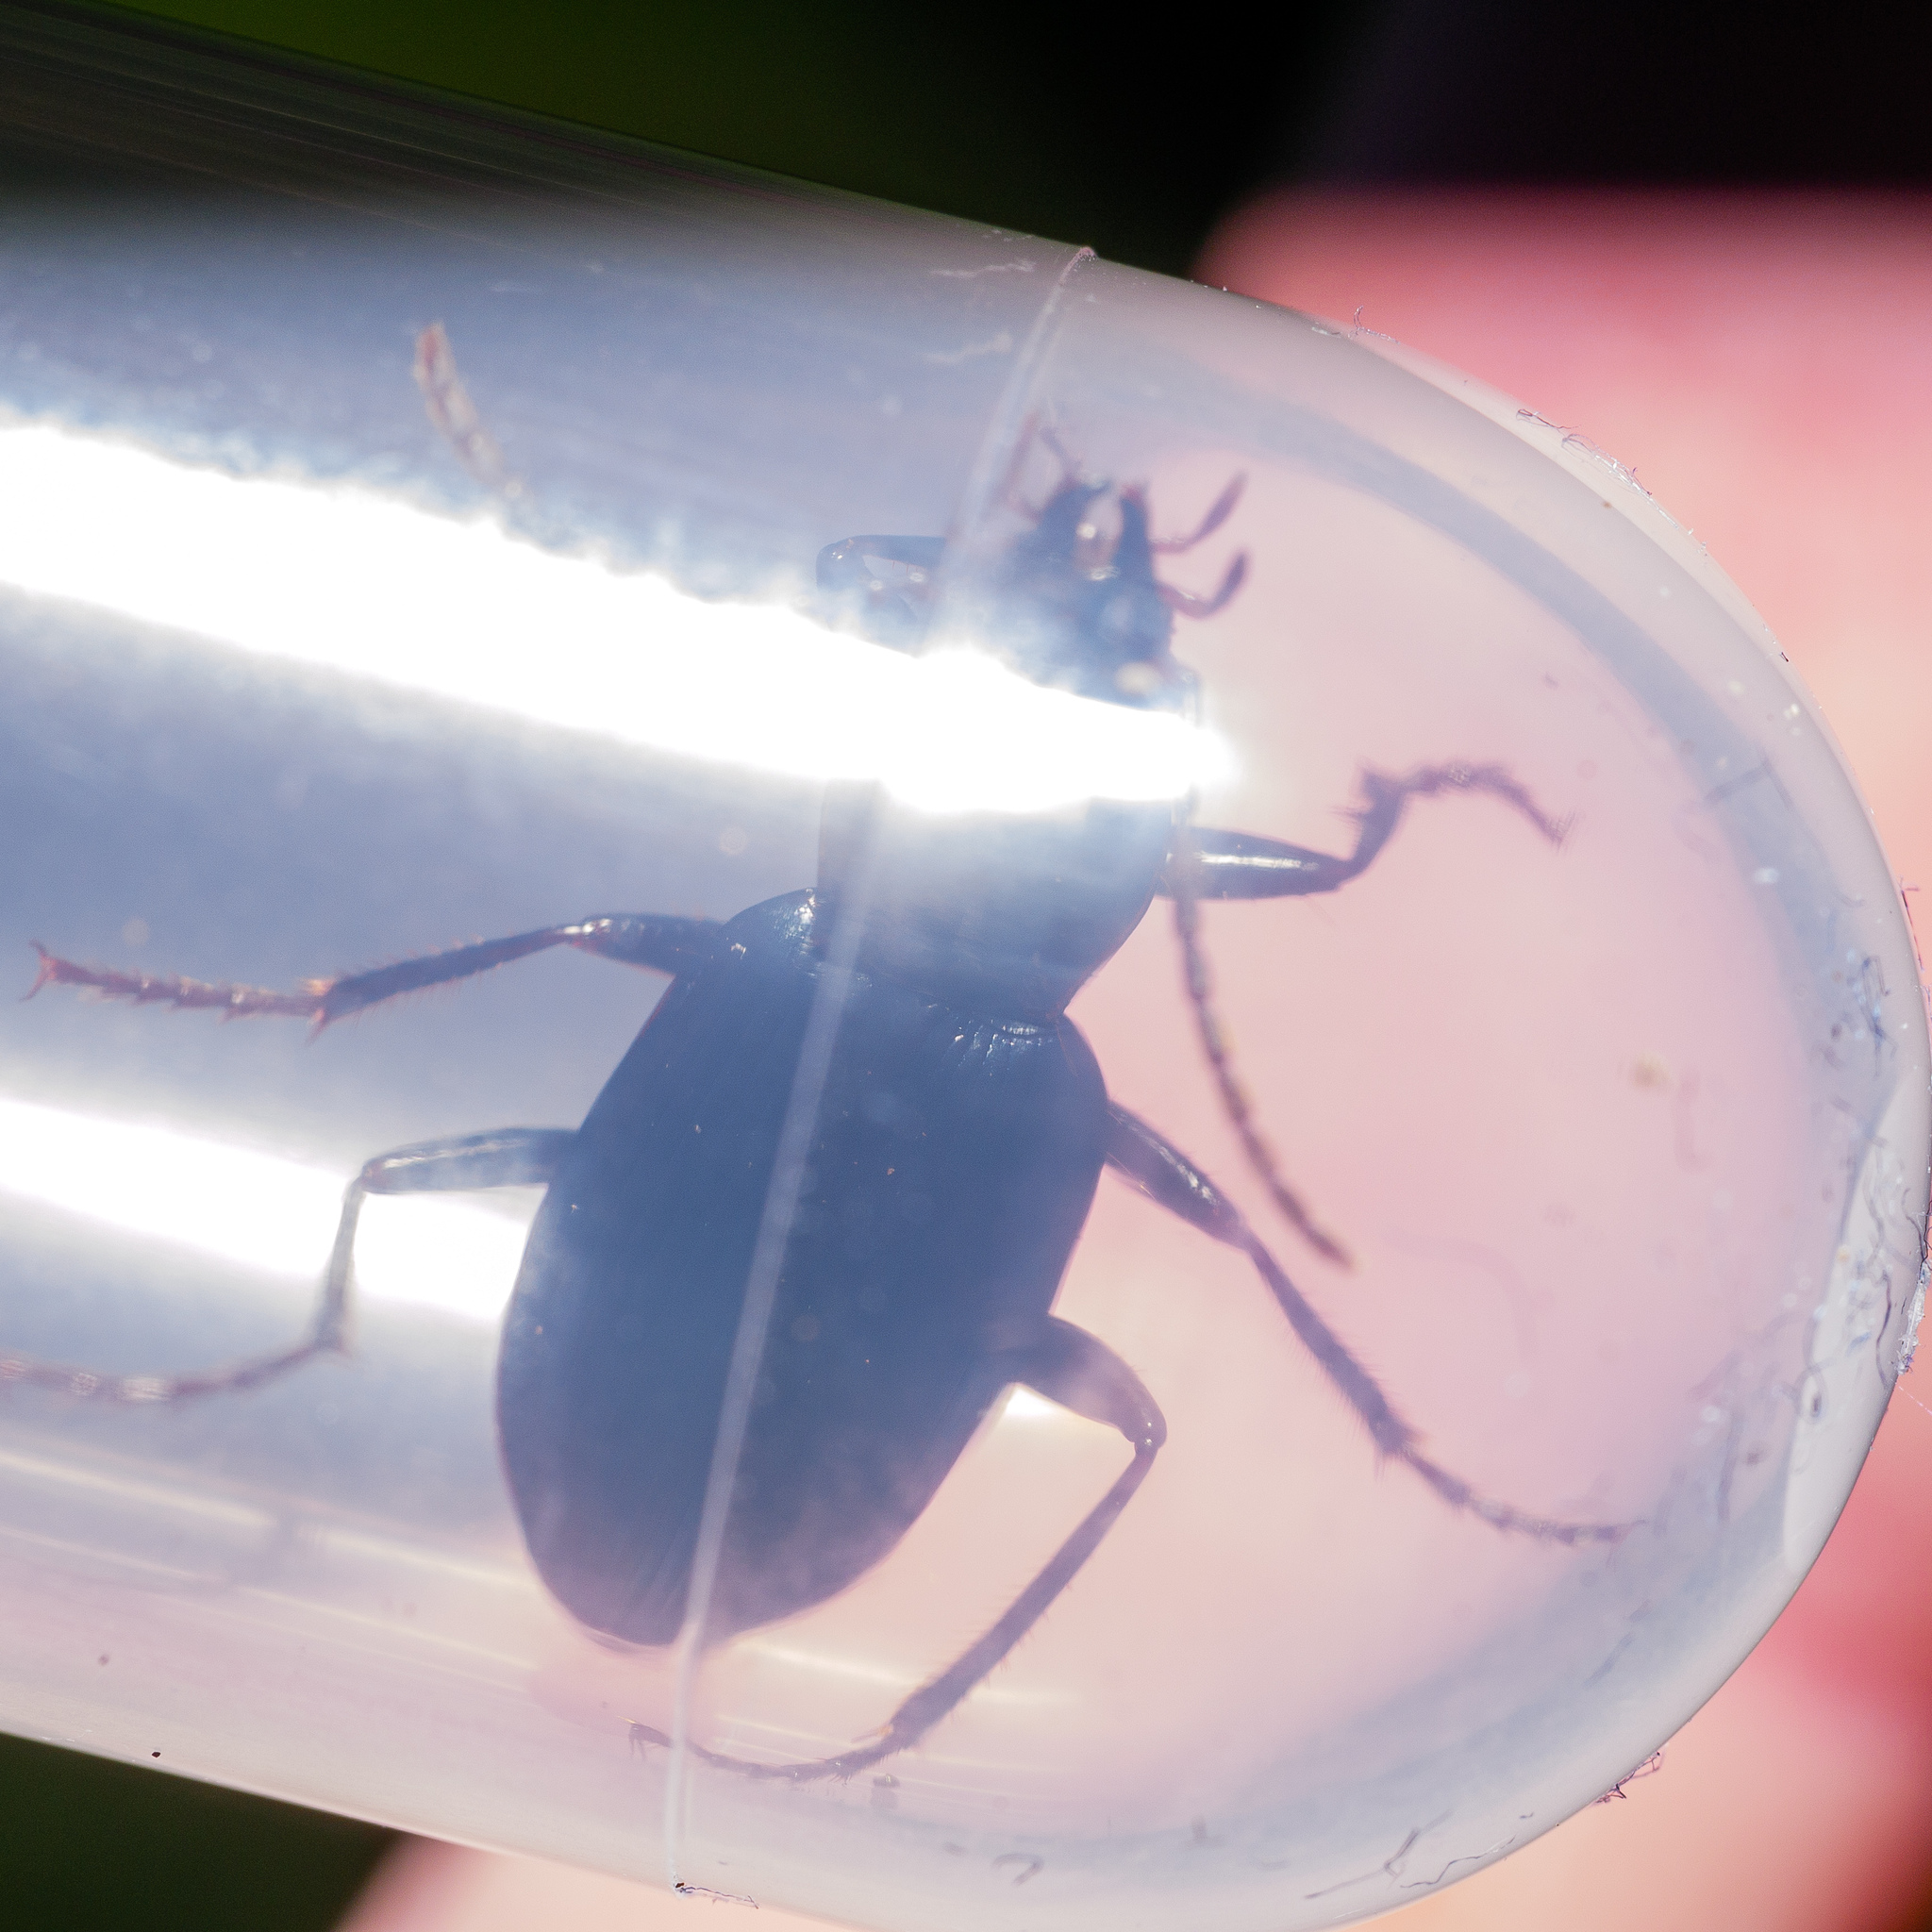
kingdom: Animalia
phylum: Arthropoda
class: Insecta
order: Coleoptera
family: Carabidae
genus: Laemostenus
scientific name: Laemostenus complanatus
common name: Cosmopolitan ground beetle
